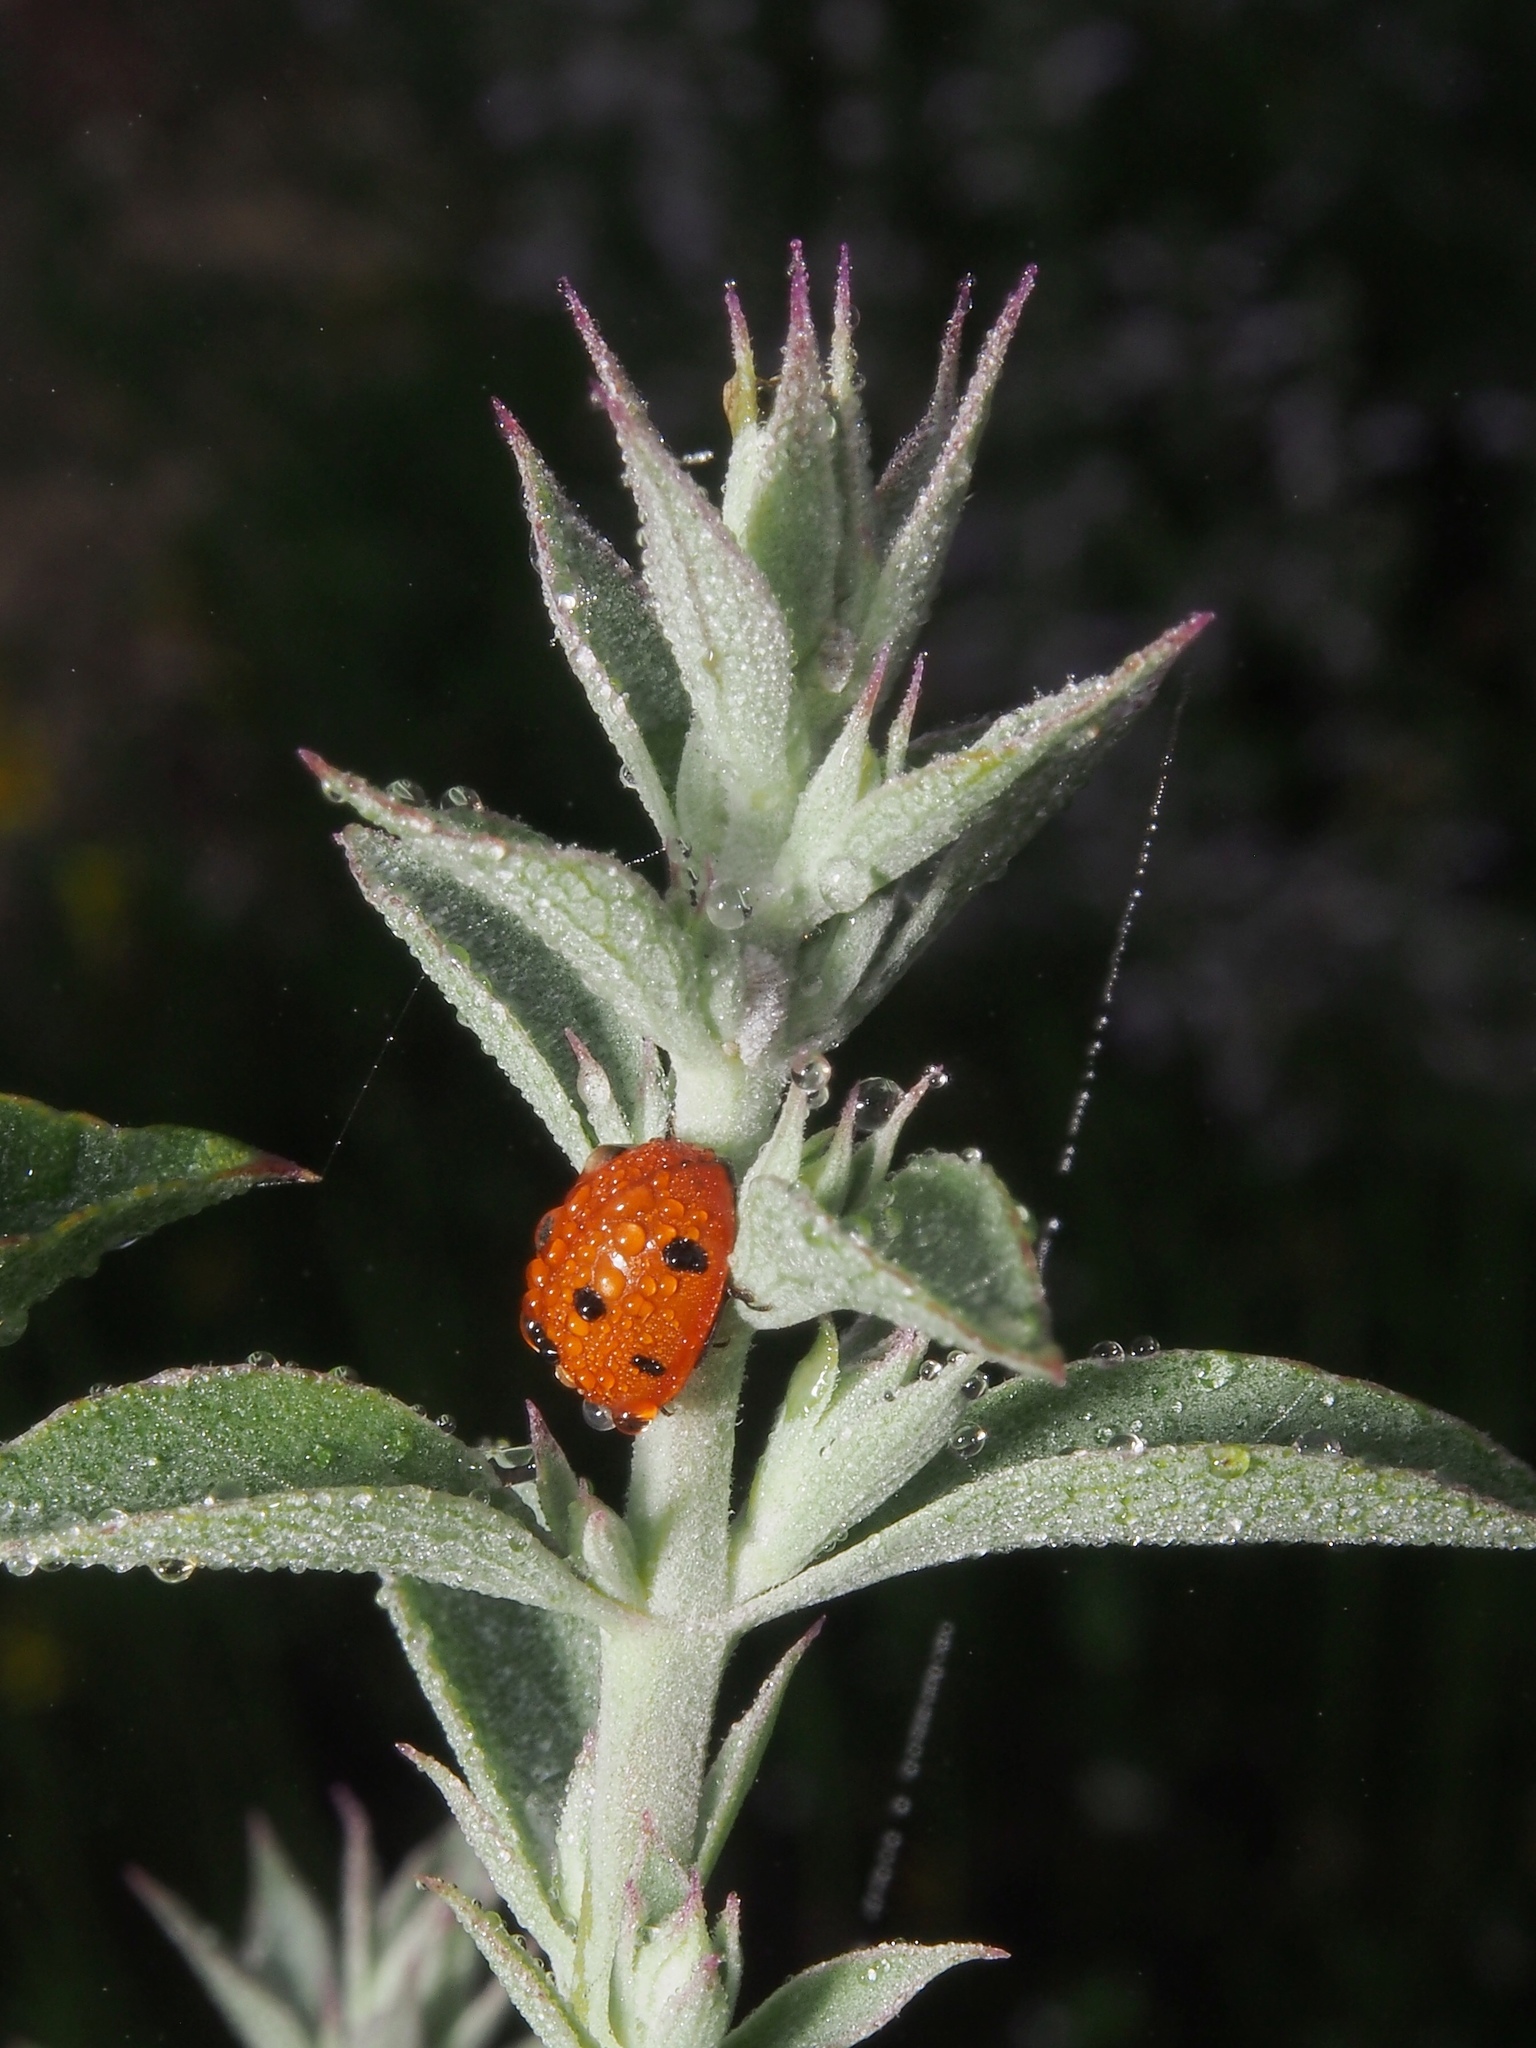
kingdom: Animalia
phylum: Arthropoda
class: Insecta
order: Coleoptera
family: Coccinellidae
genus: Coccinella
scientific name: Coccinella septempunctata
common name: Sevenspotted lady beetle
